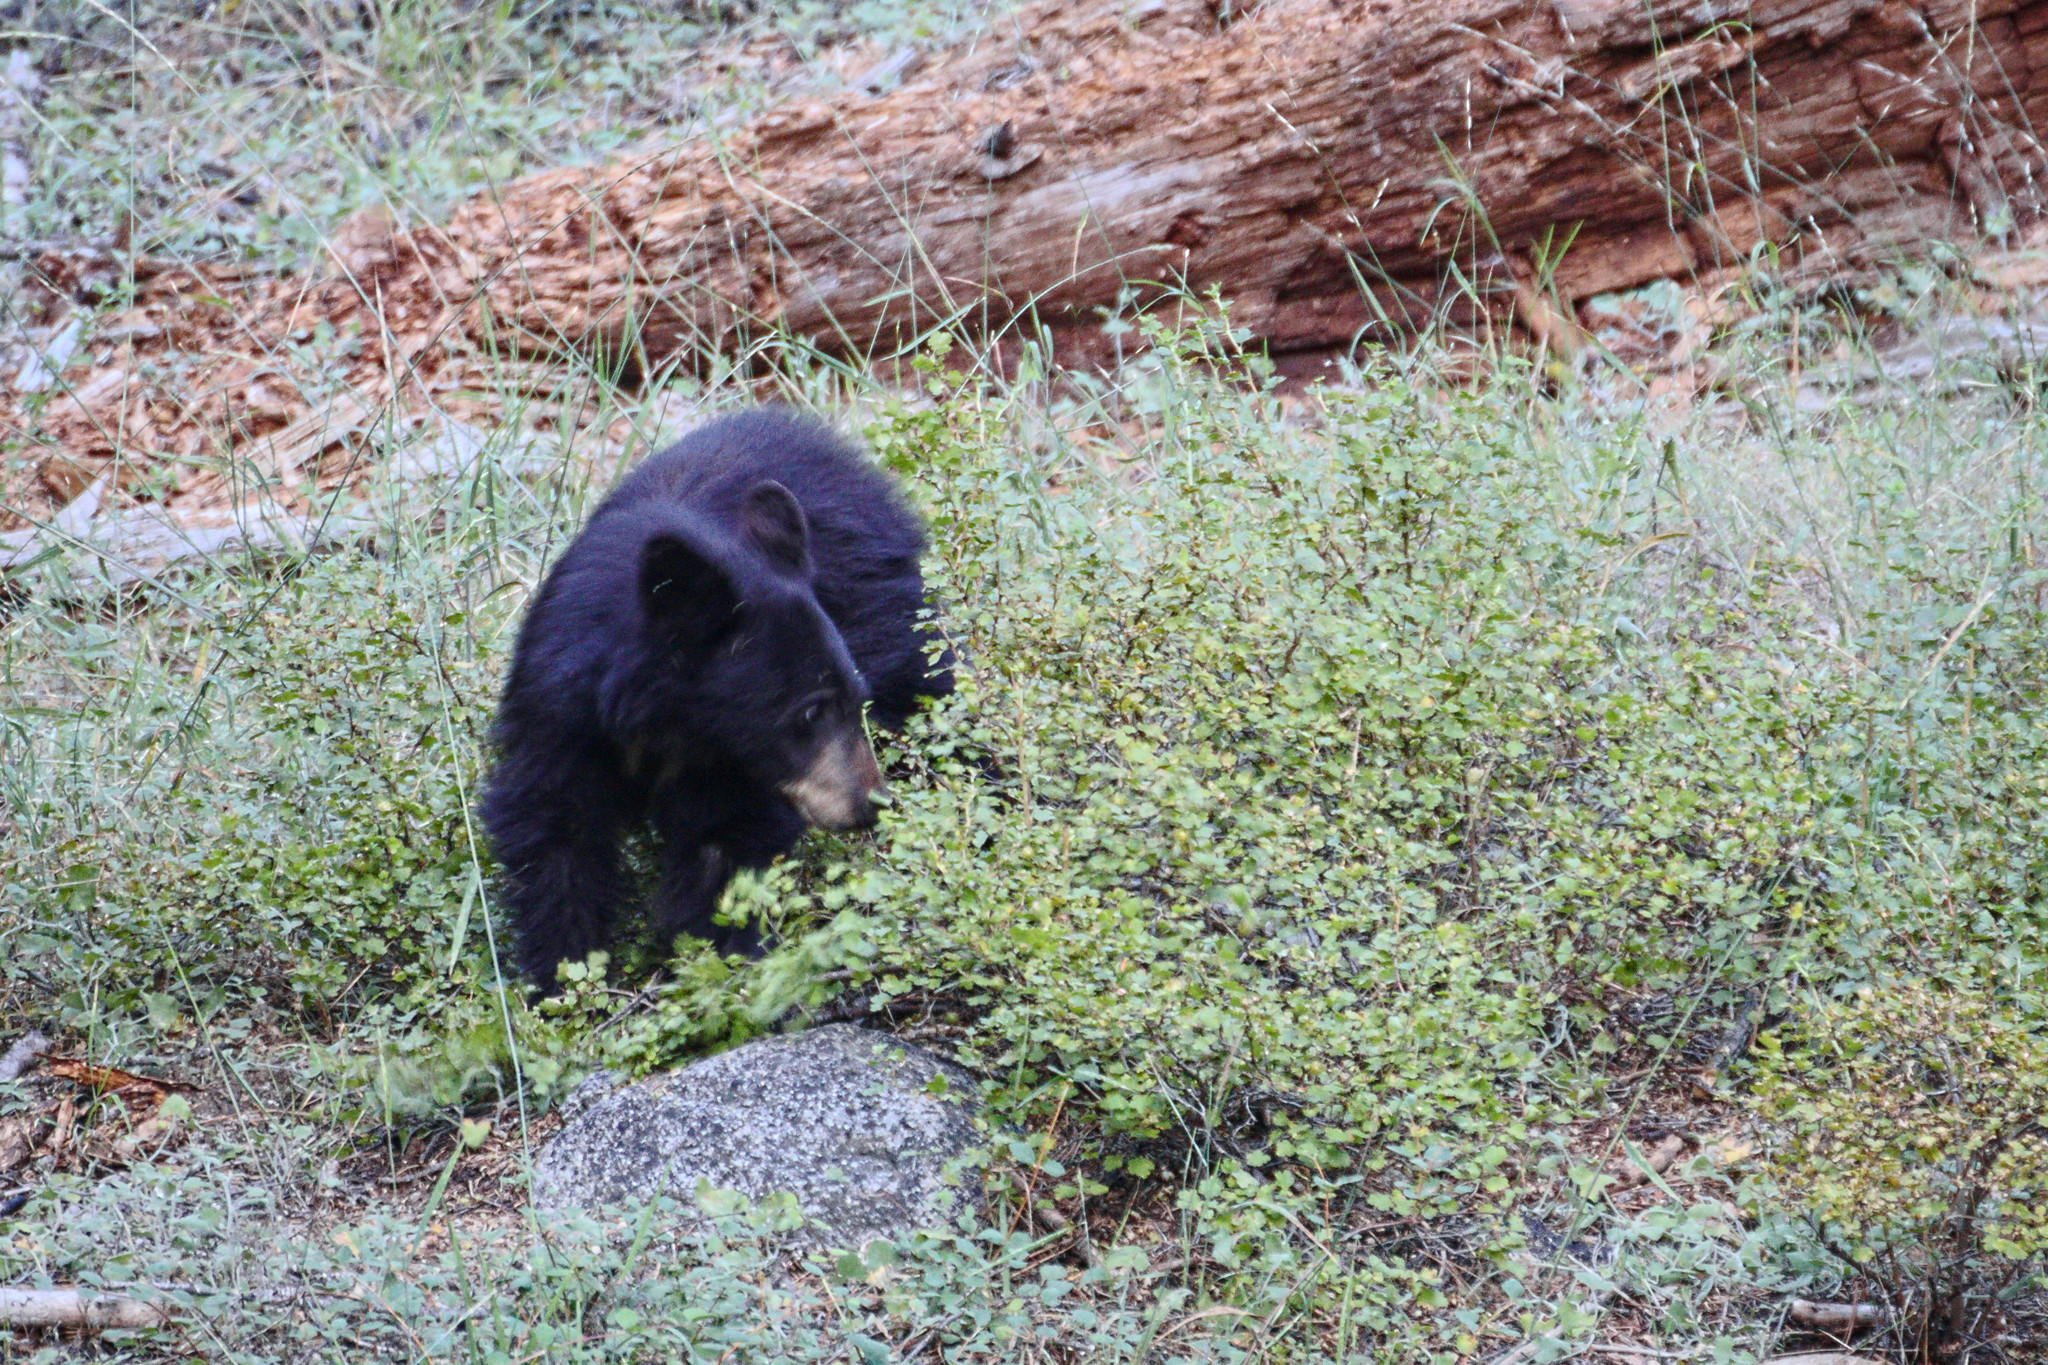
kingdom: Animalia
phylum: Chordata
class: Mammalia
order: Carnivora
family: Ursidae
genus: Ursus
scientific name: Ursus americanus
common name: American black bear
